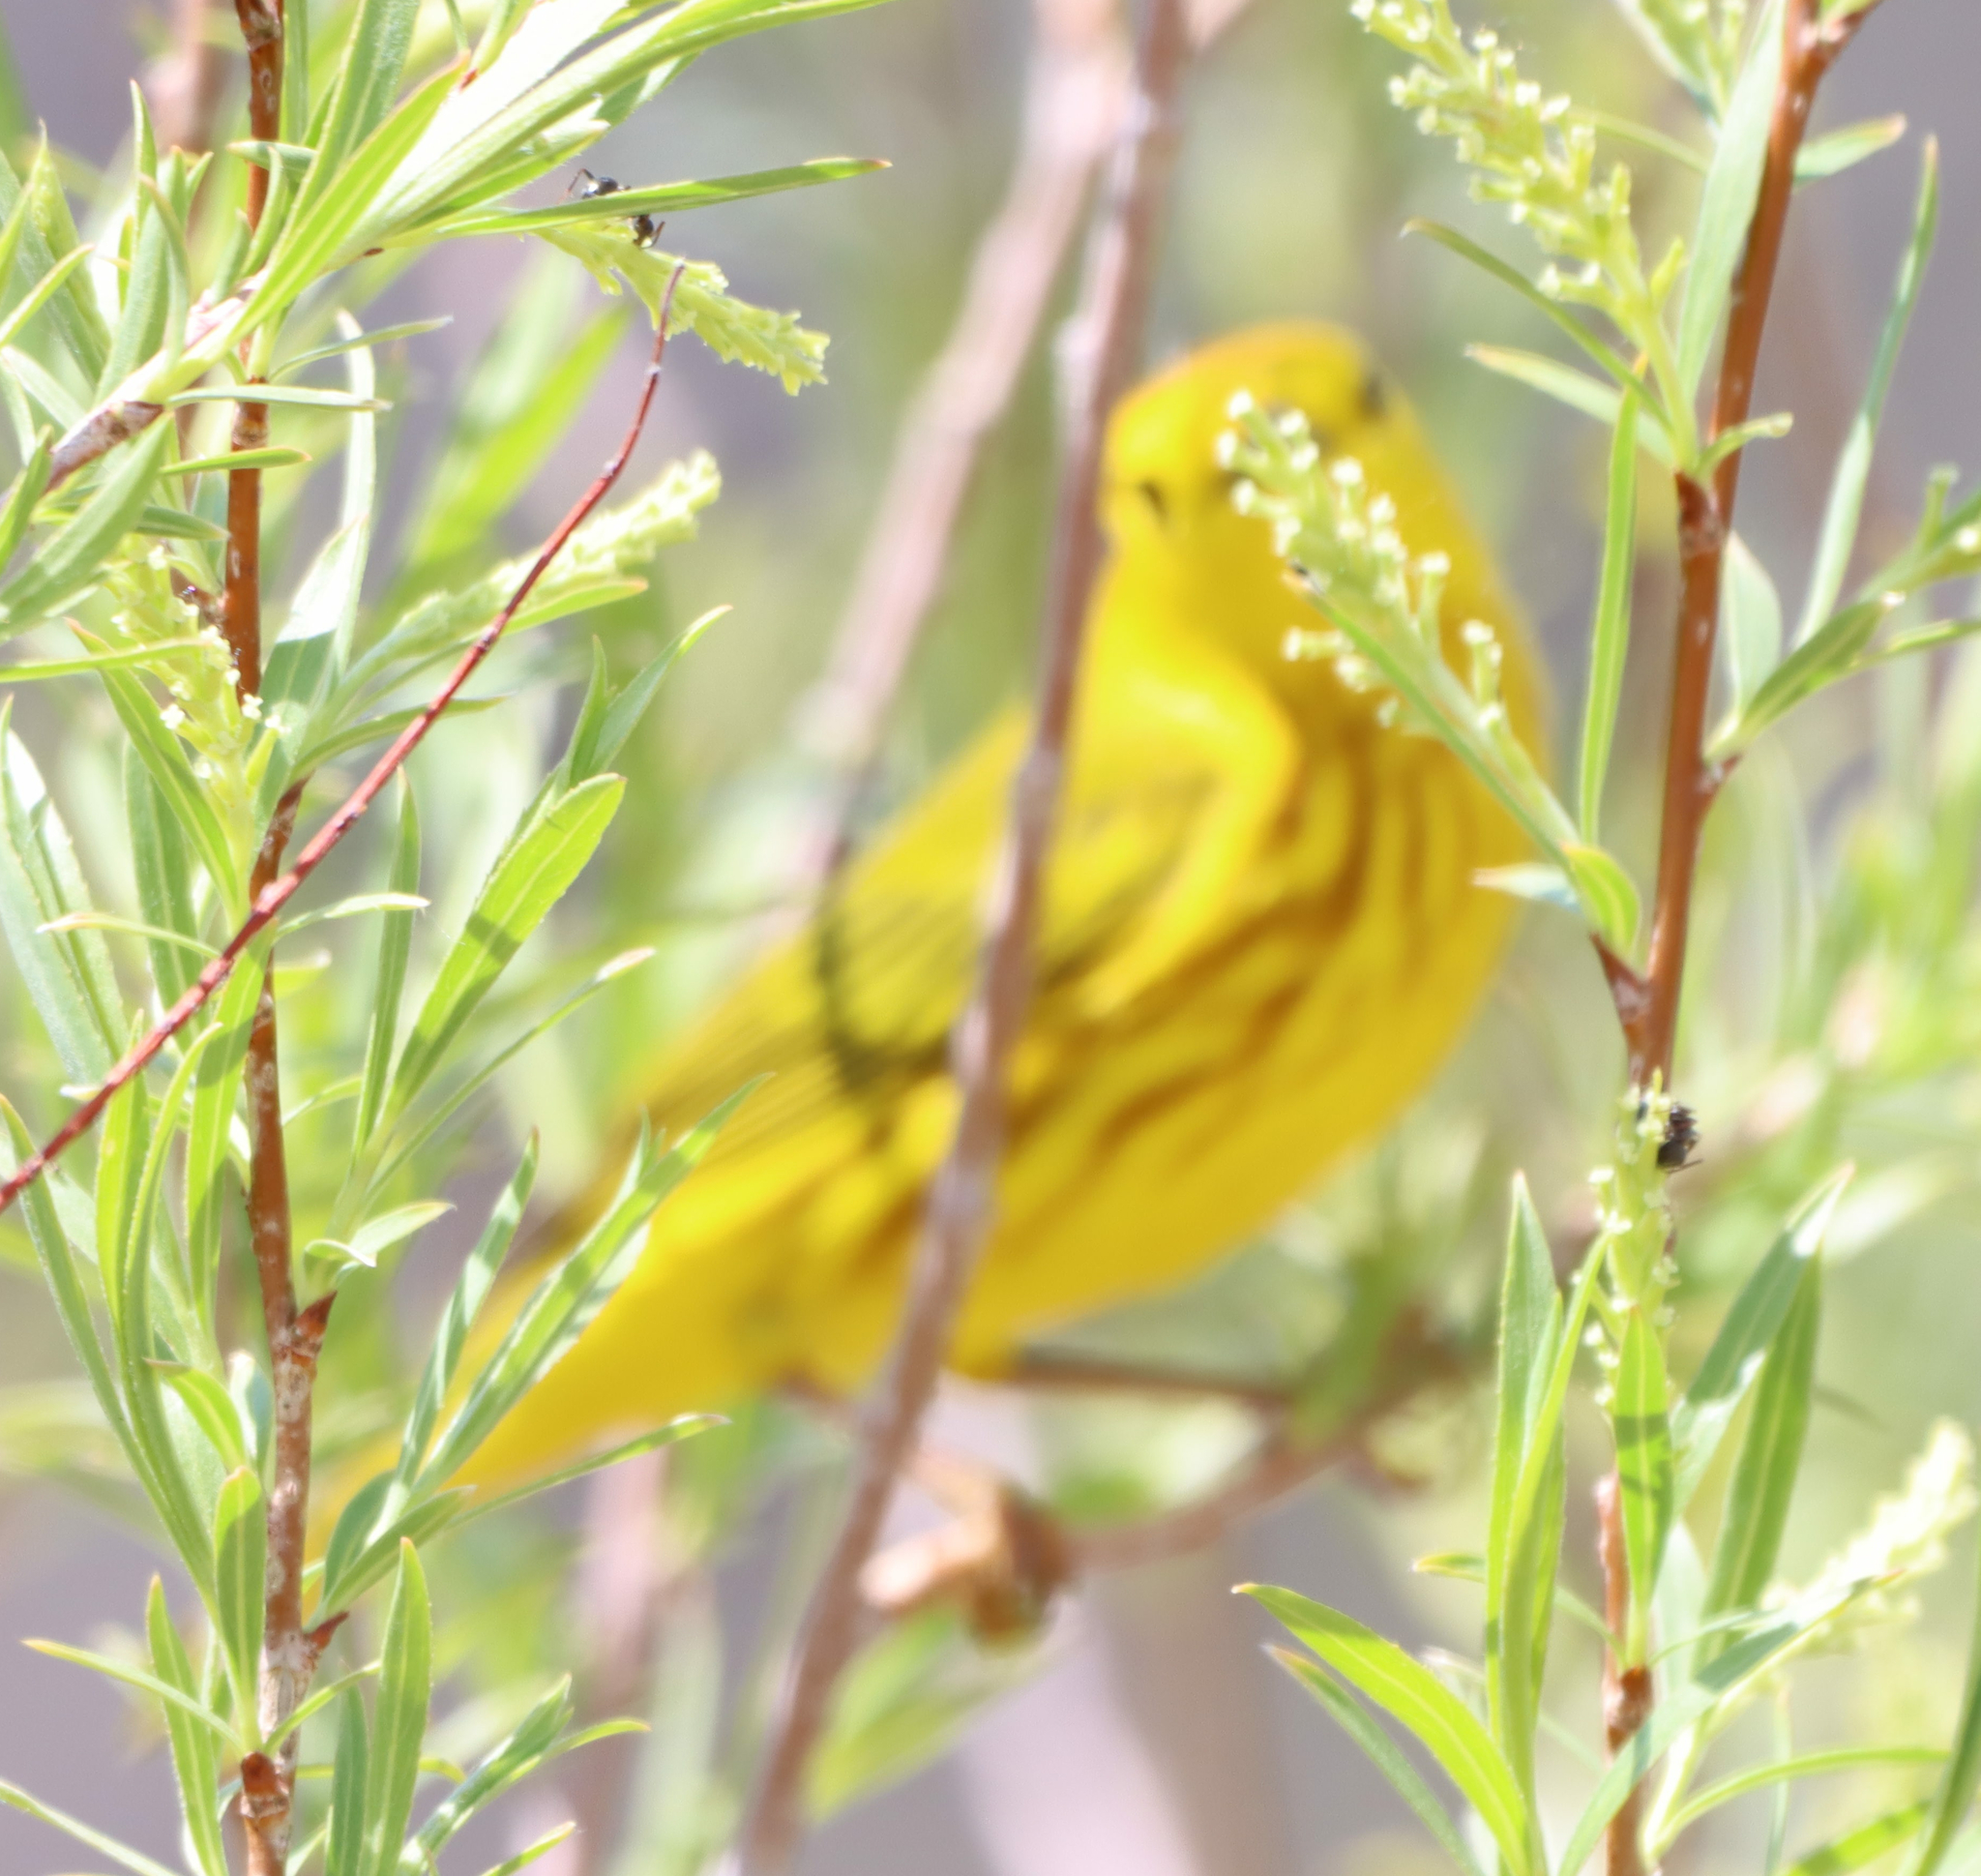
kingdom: Animalia
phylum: Chordata
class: Aves
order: Passeriformes
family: Parulidae
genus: Setophaga
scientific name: Setophaga petechia
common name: Yellow warbler
